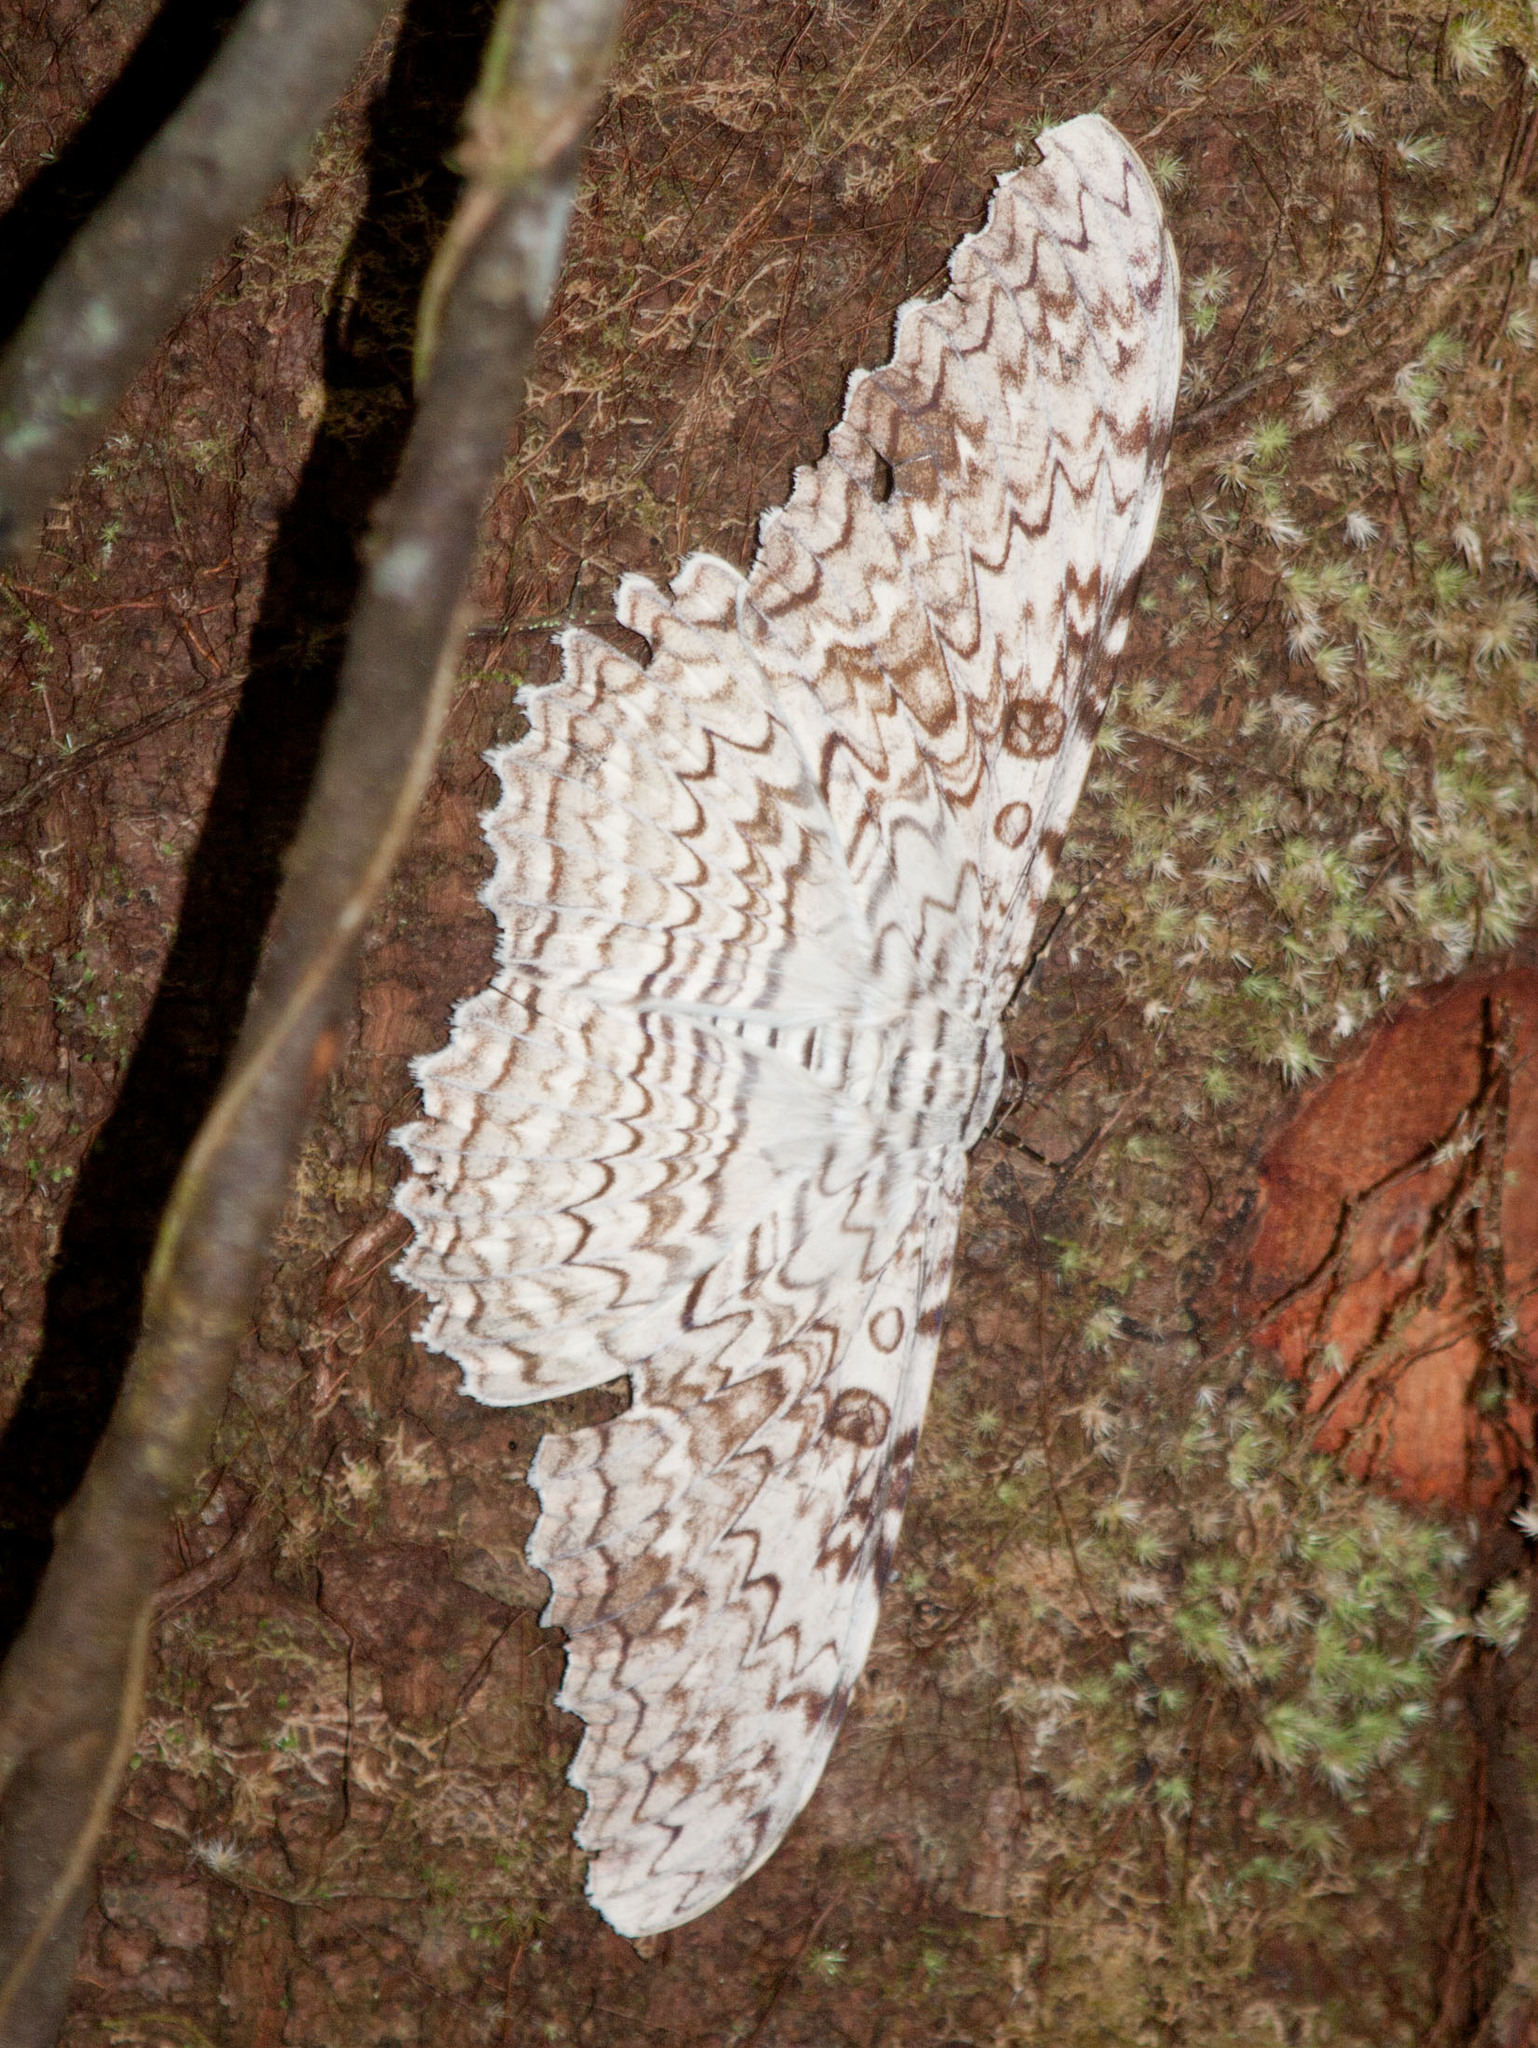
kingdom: Animalia
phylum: Arthropoda
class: Insecta
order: Lepidoptera
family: Erebidae
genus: Thysania
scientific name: Thysania agrippina
